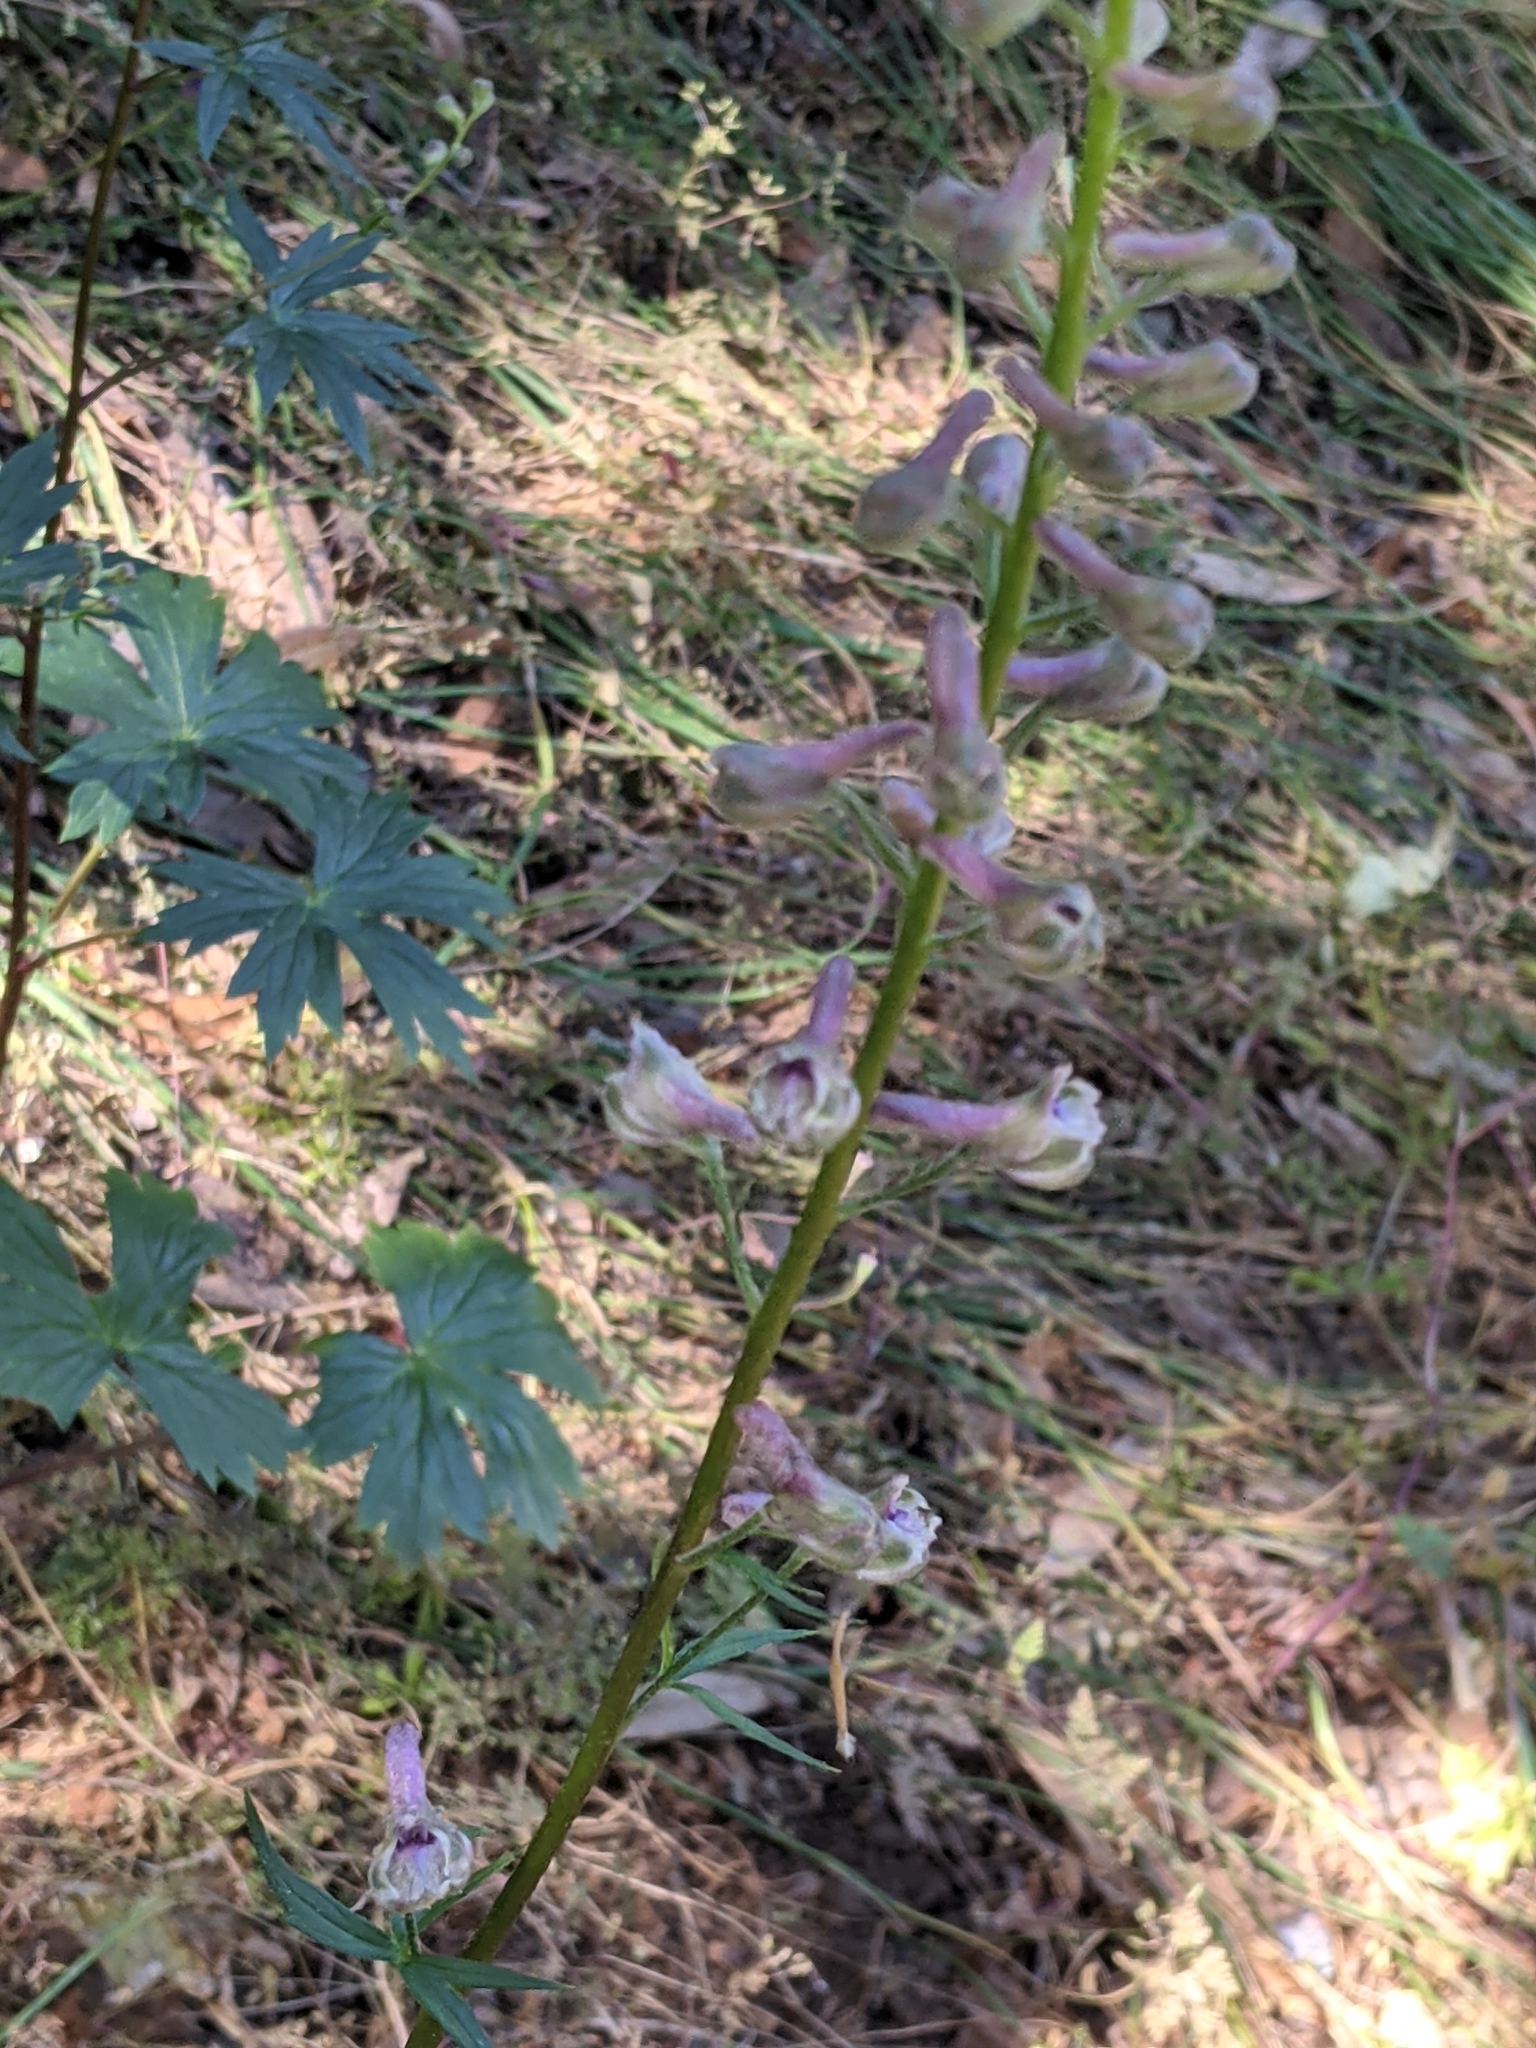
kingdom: Plantae
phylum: Tracheophyta
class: Magnoliopsida
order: Ranunculales
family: Ranunculaceae
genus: Delphinium
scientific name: Delphinium californicum
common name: California larkspur
